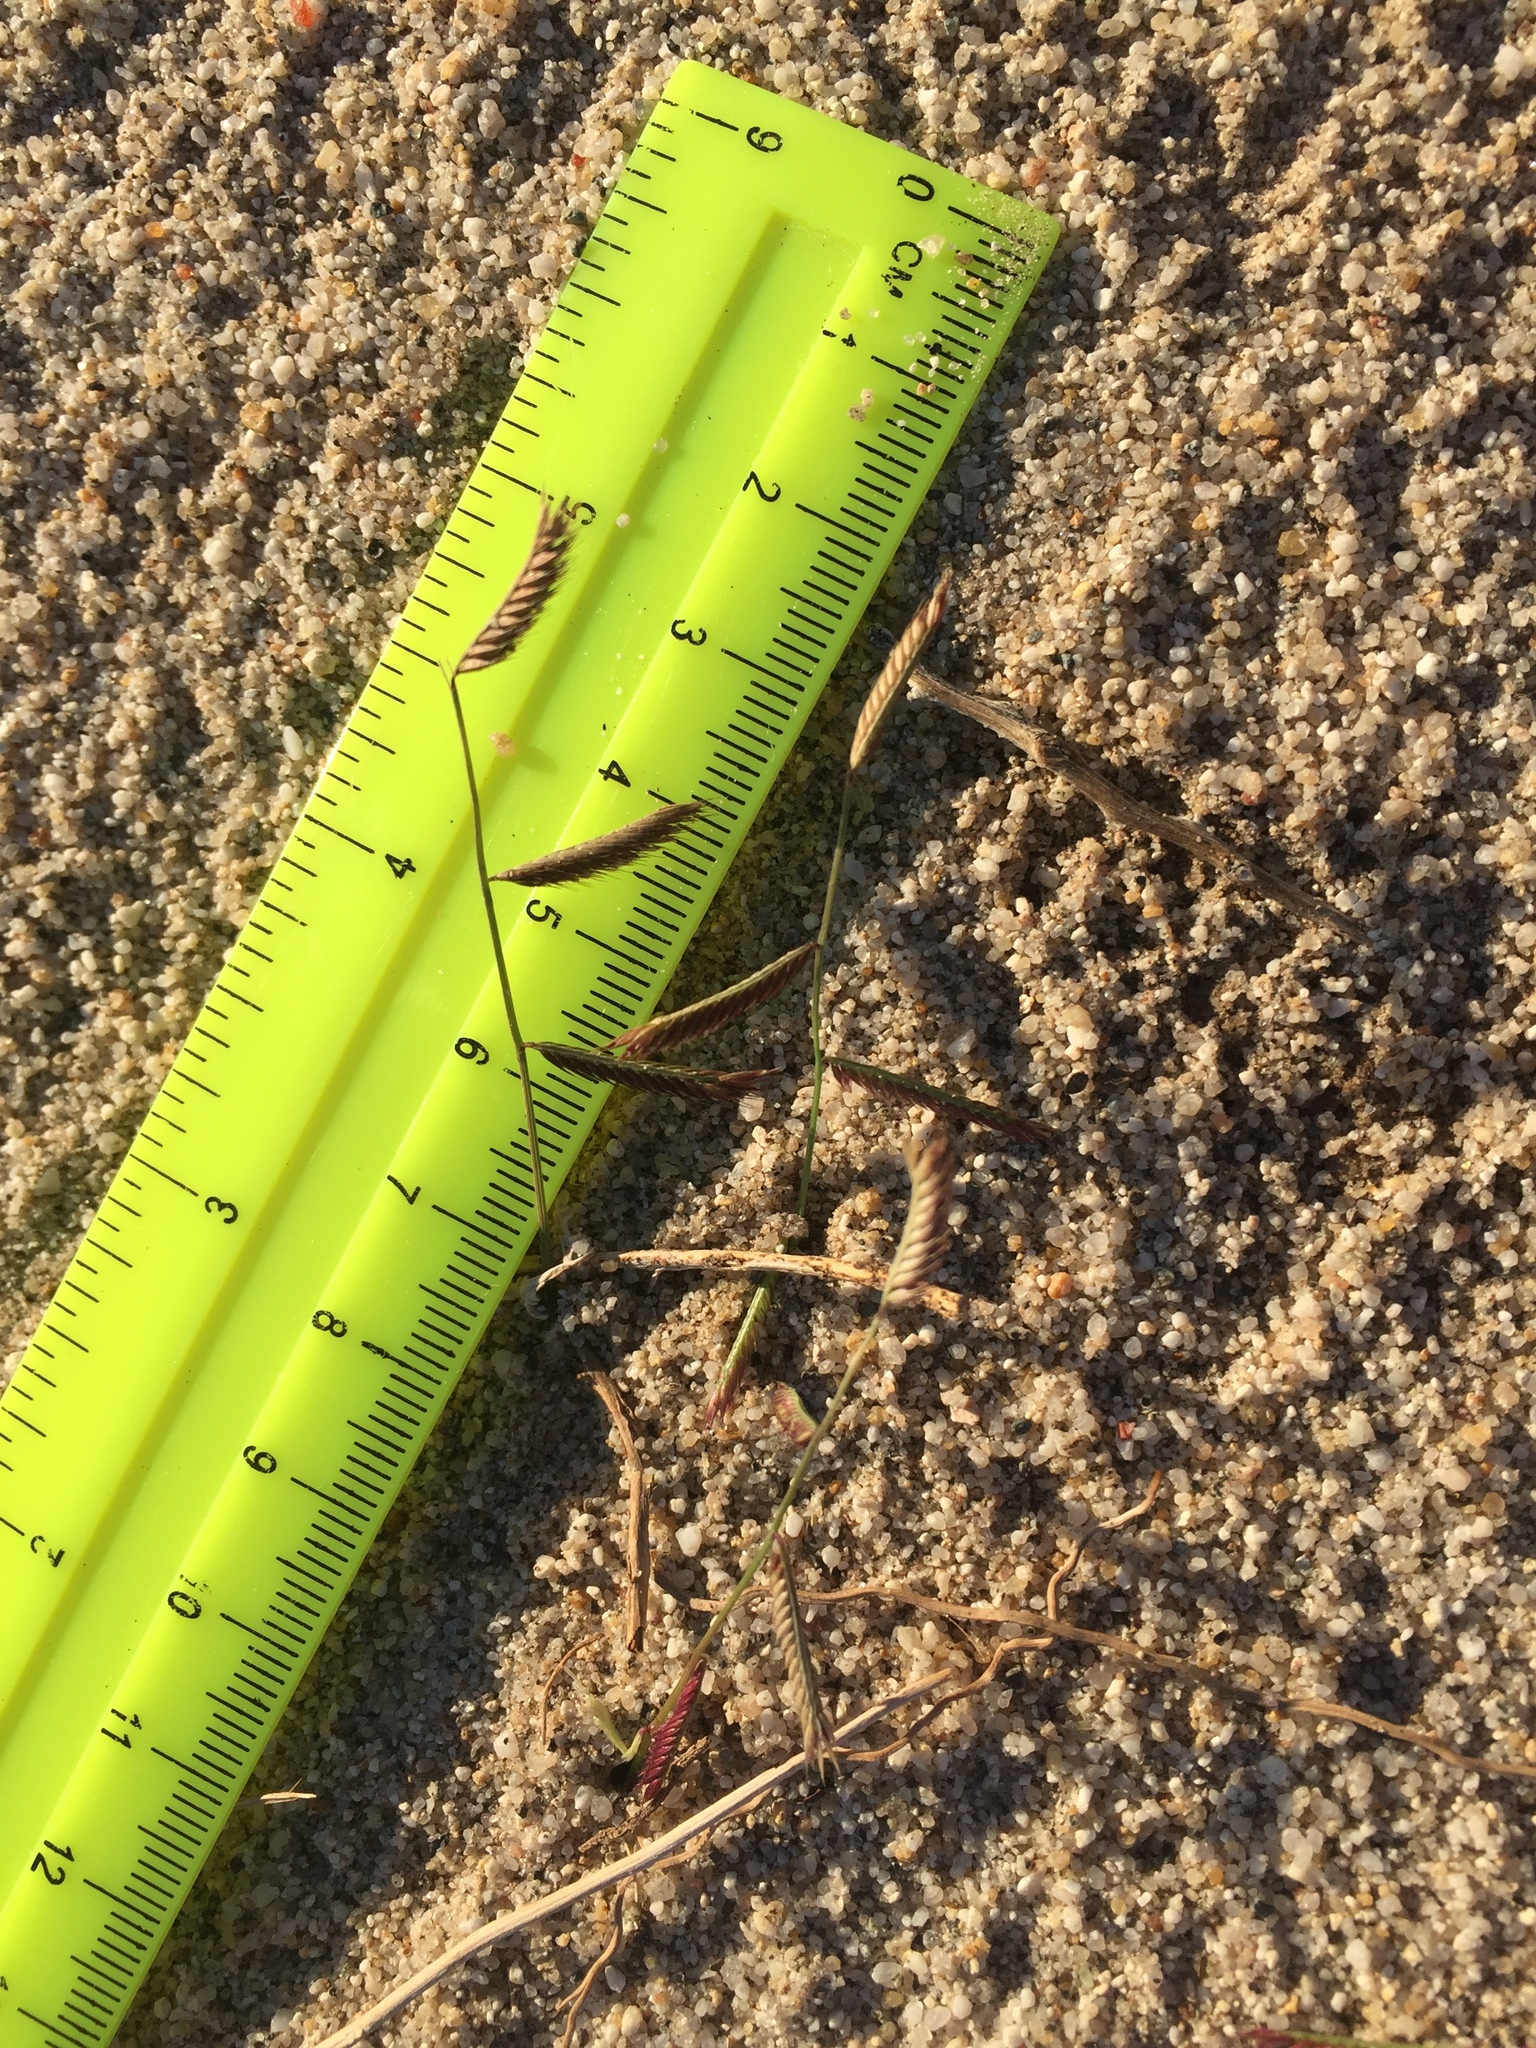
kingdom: Plantae
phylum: Tracheophyta
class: Liliopsida
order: Poales
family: Poaceae
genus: Bouteloua
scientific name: Bouteloua barbata
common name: Six-weeks grama
